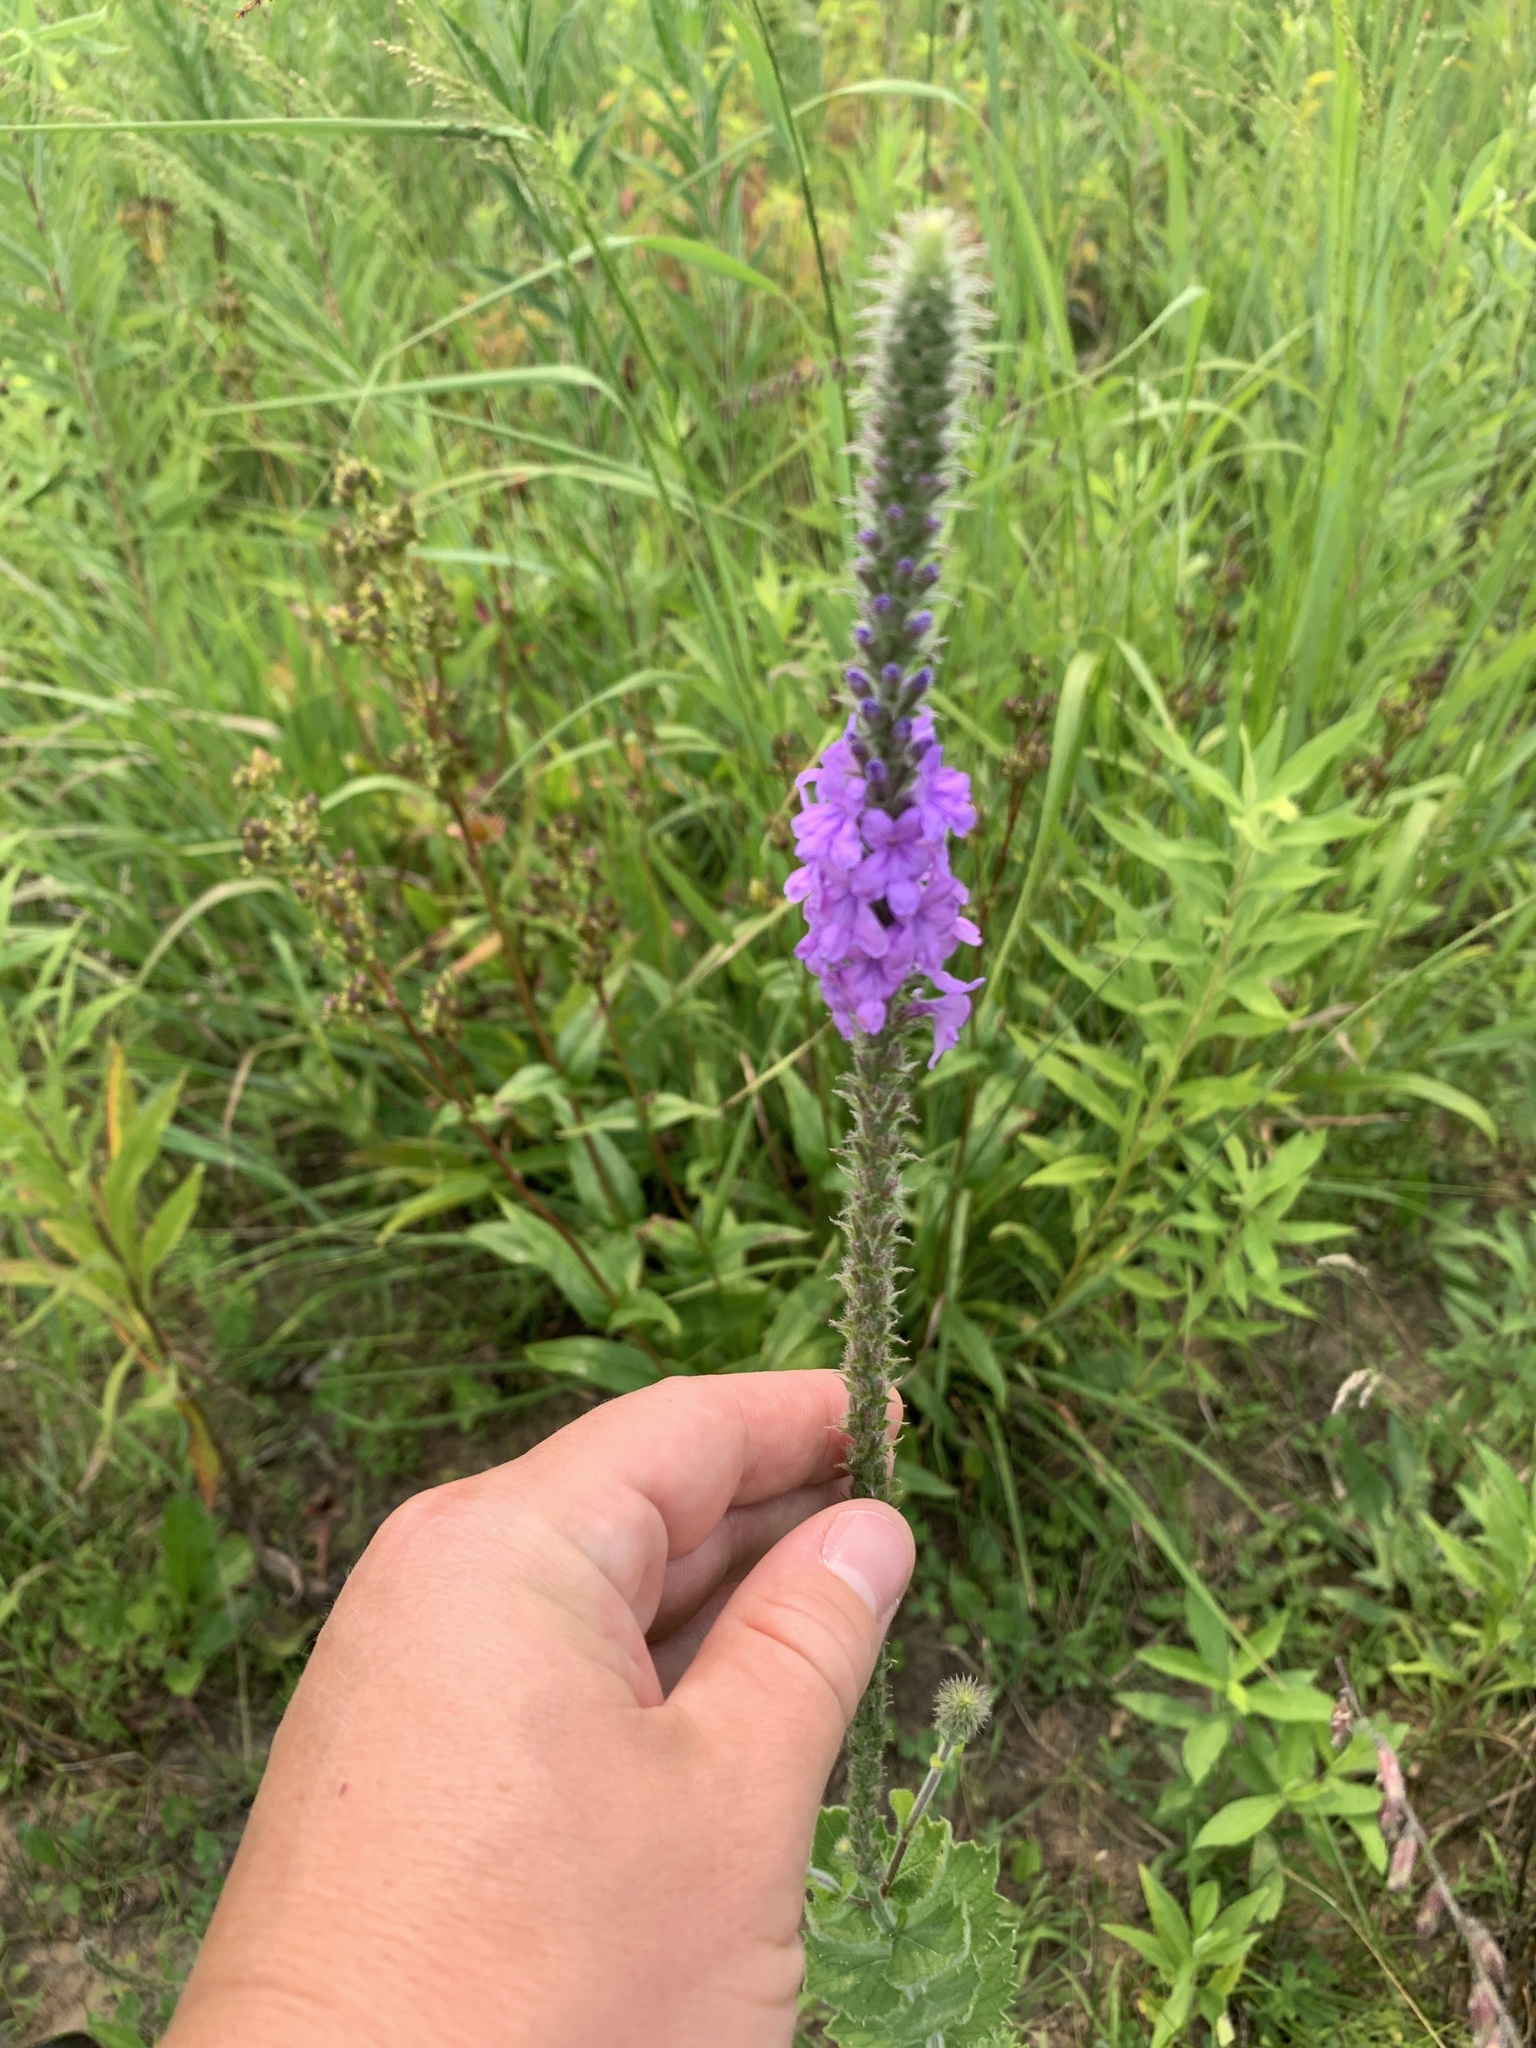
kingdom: Plantae
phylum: Tracheophyta
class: Magnoliopsida
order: Lamiales
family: Verbenaceae
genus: Verbena
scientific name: Verbena stricta
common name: Hoary vervain
